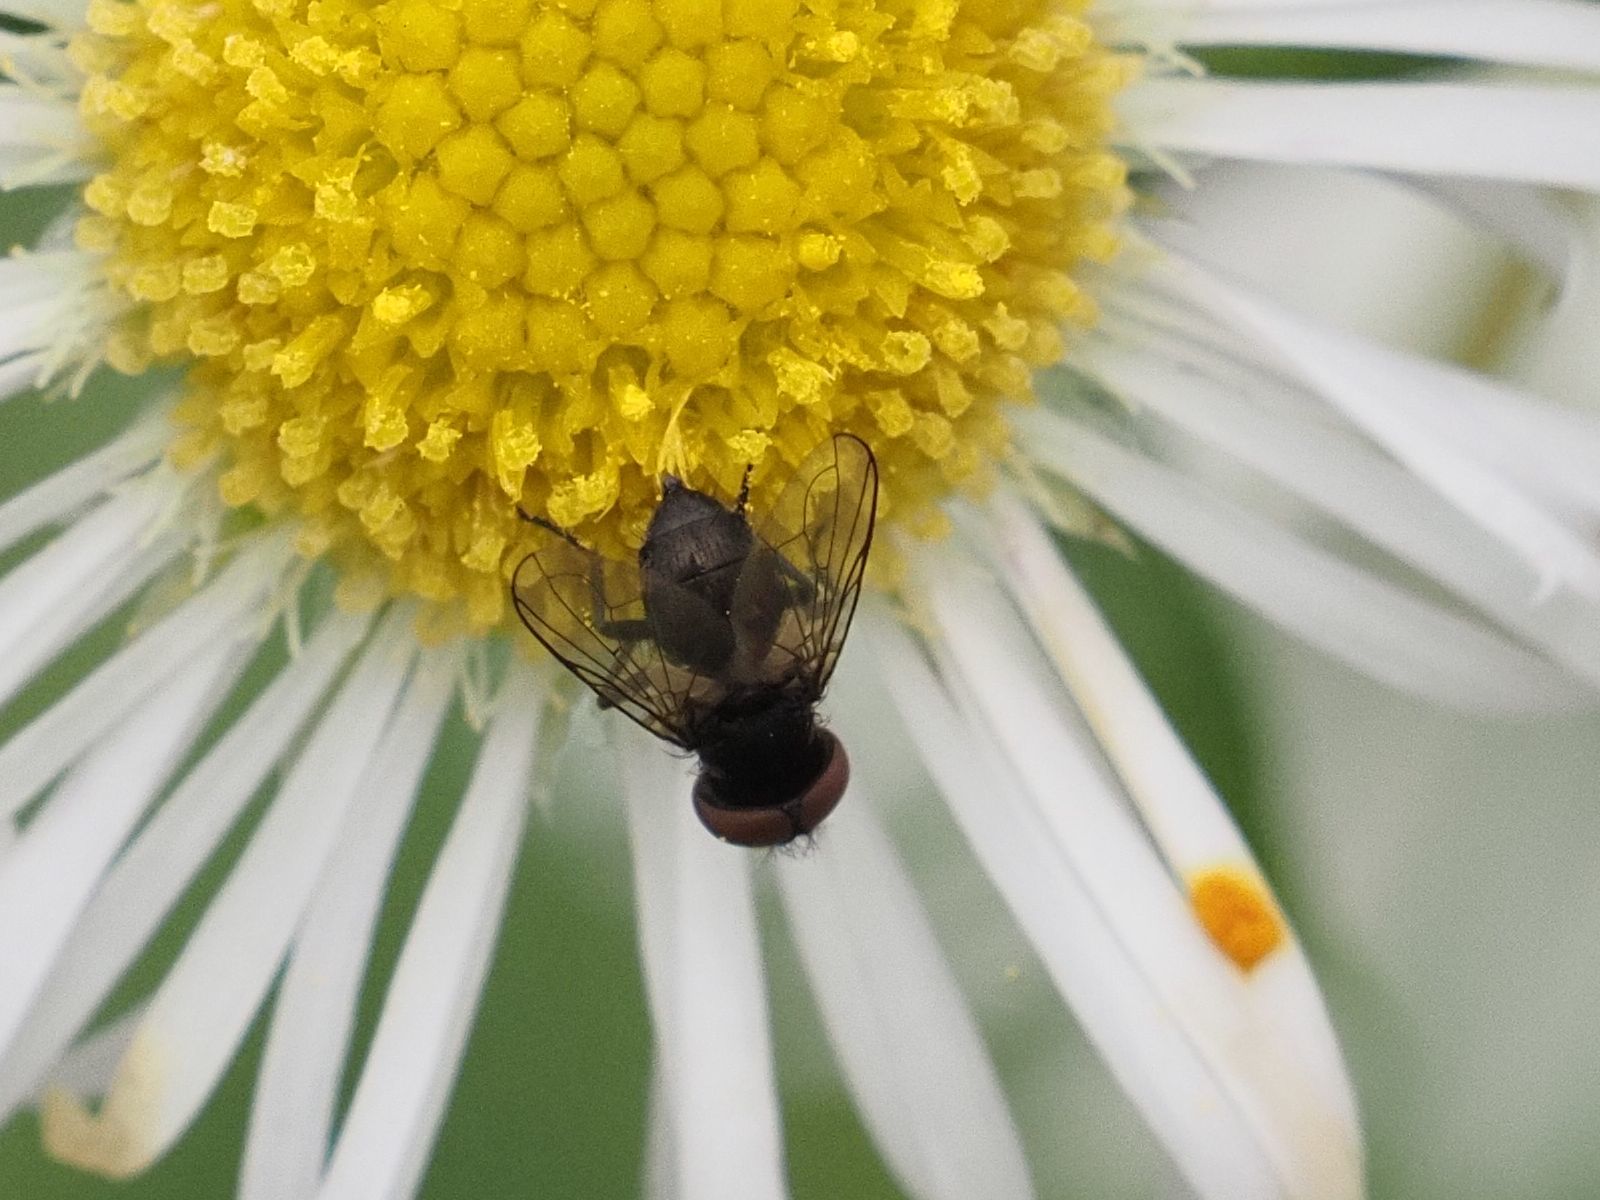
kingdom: Animalia
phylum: Arthropoda
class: Insecta
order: Diptera
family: Tachinidae
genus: Phasia
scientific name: Phasia barbifrons
